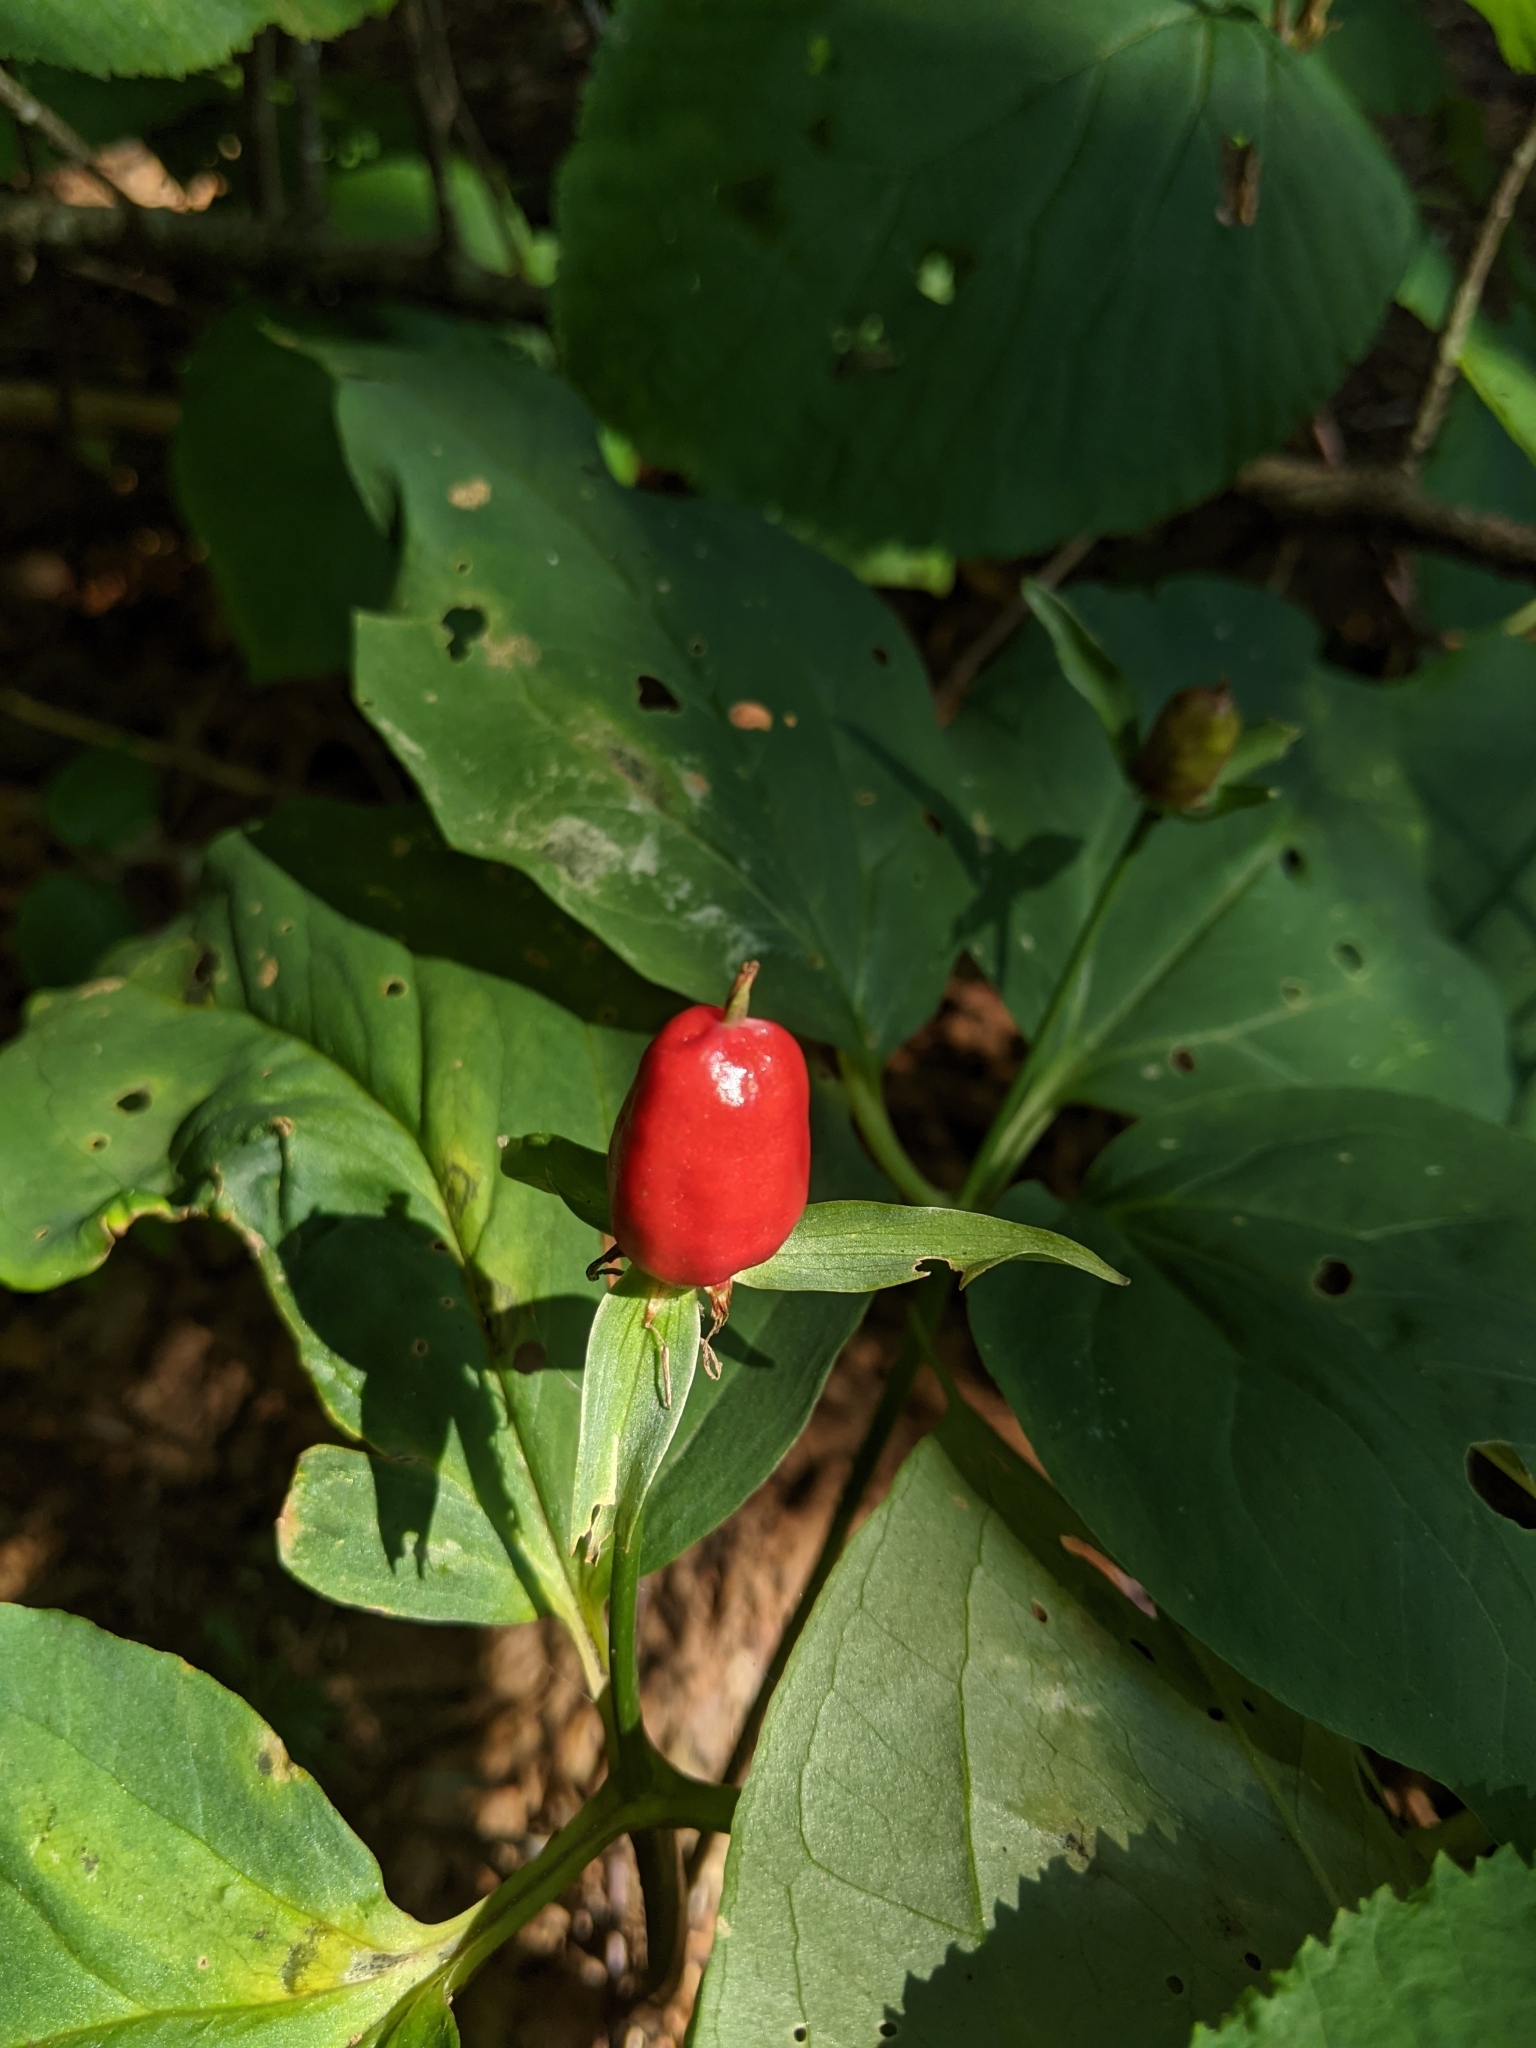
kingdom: Plantae
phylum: Tracheophyta
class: Liliopsida
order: Liliales
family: Melanthiaceae
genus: Trillium
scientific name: Trillium undulatum
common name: Paint trillium
